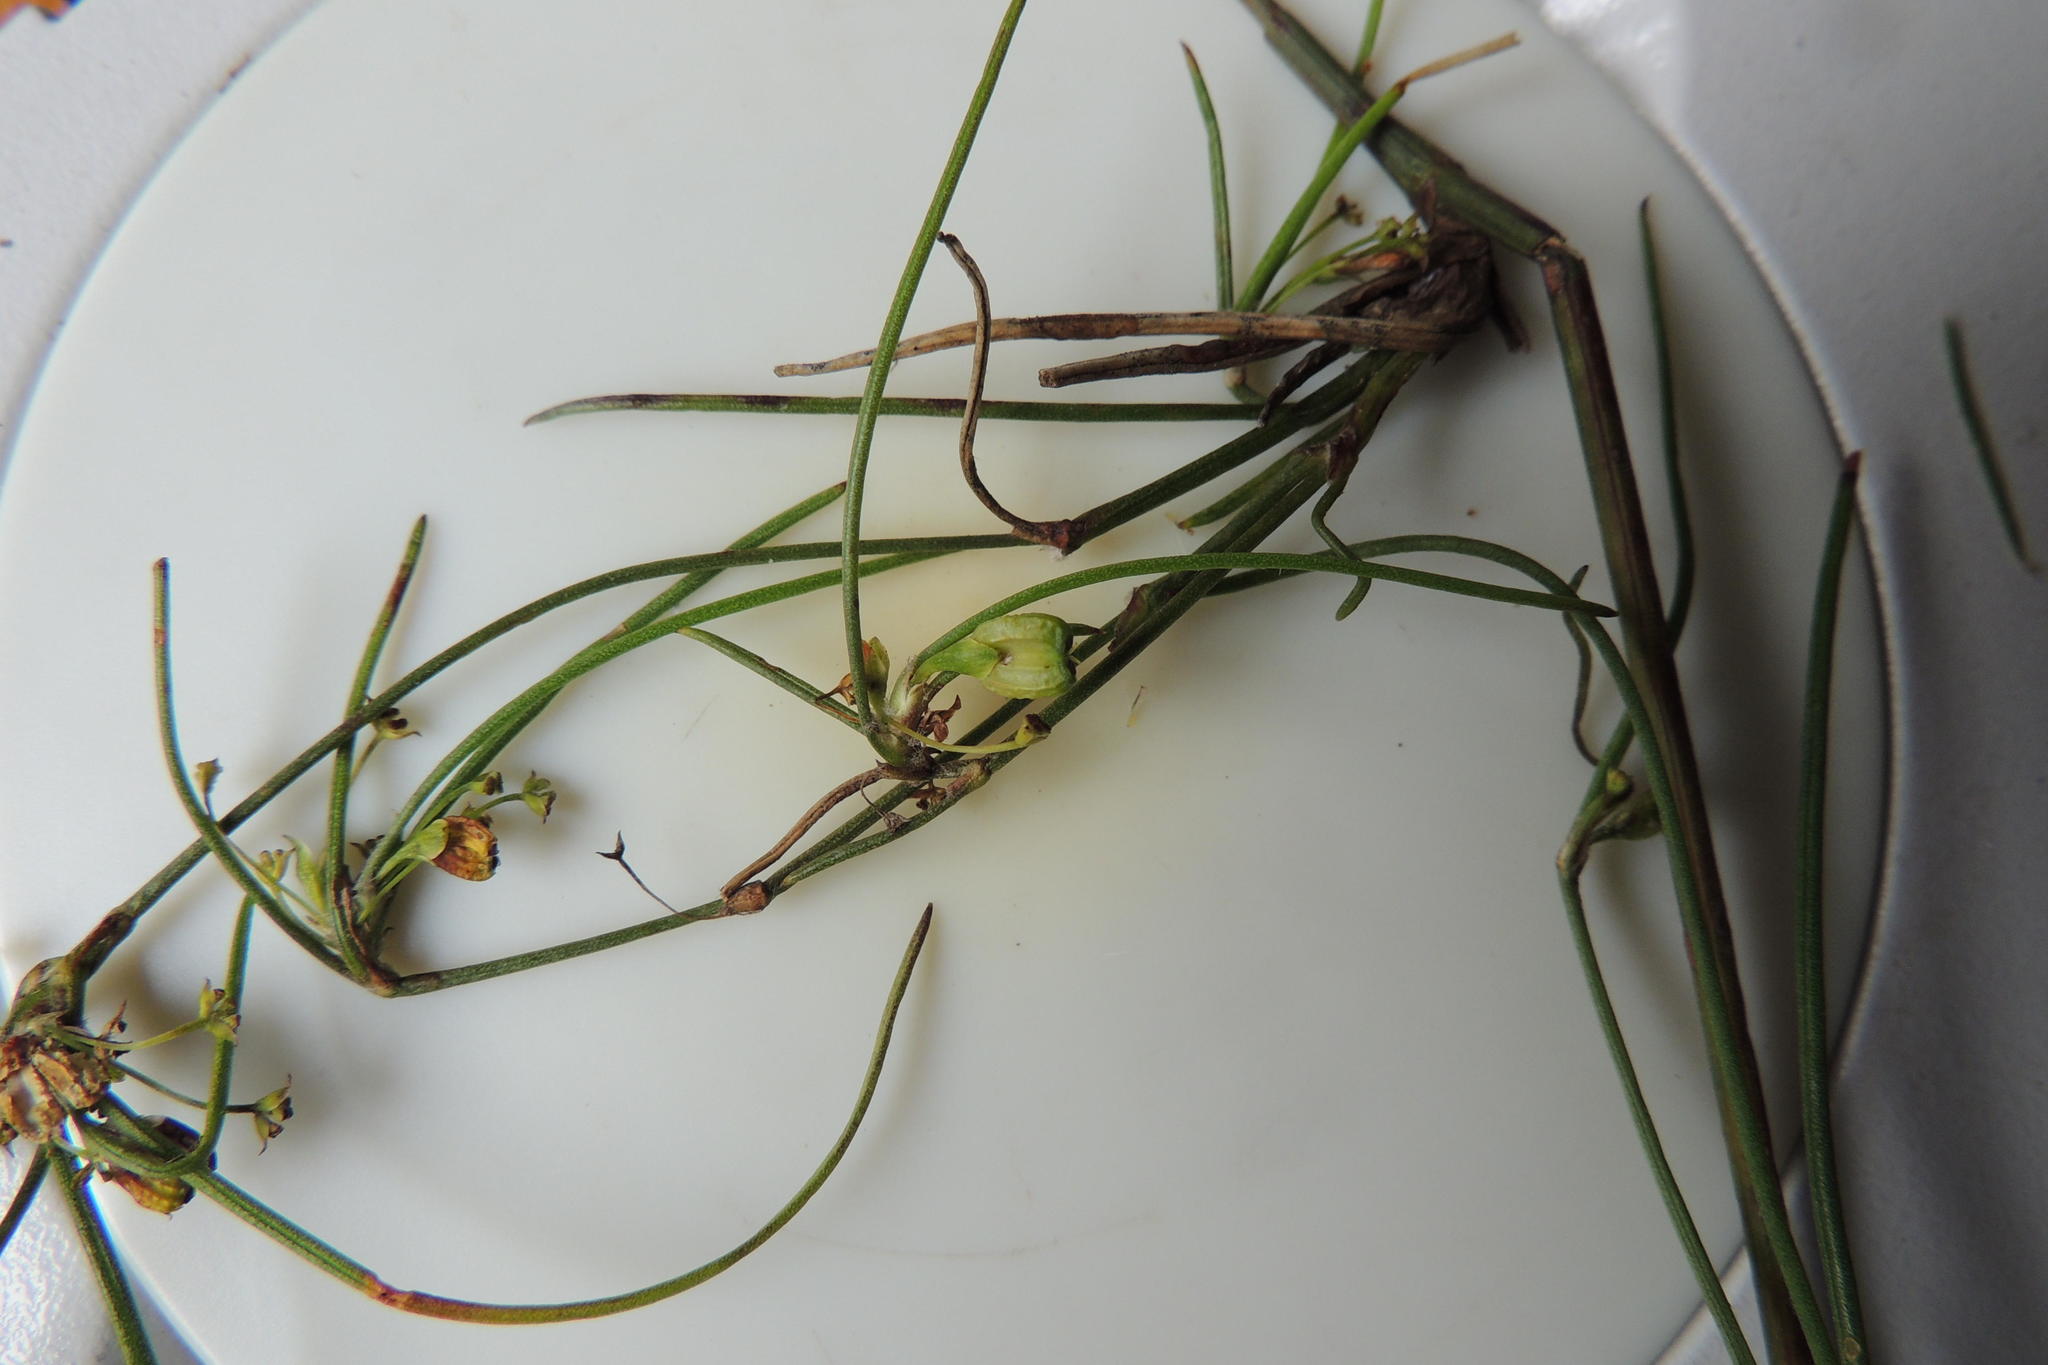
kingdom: Plantae
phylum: Tracheophyta
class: Magnoliopsida
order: Apiales
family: Apiaceae
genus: Centella
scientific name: Centella virgata
